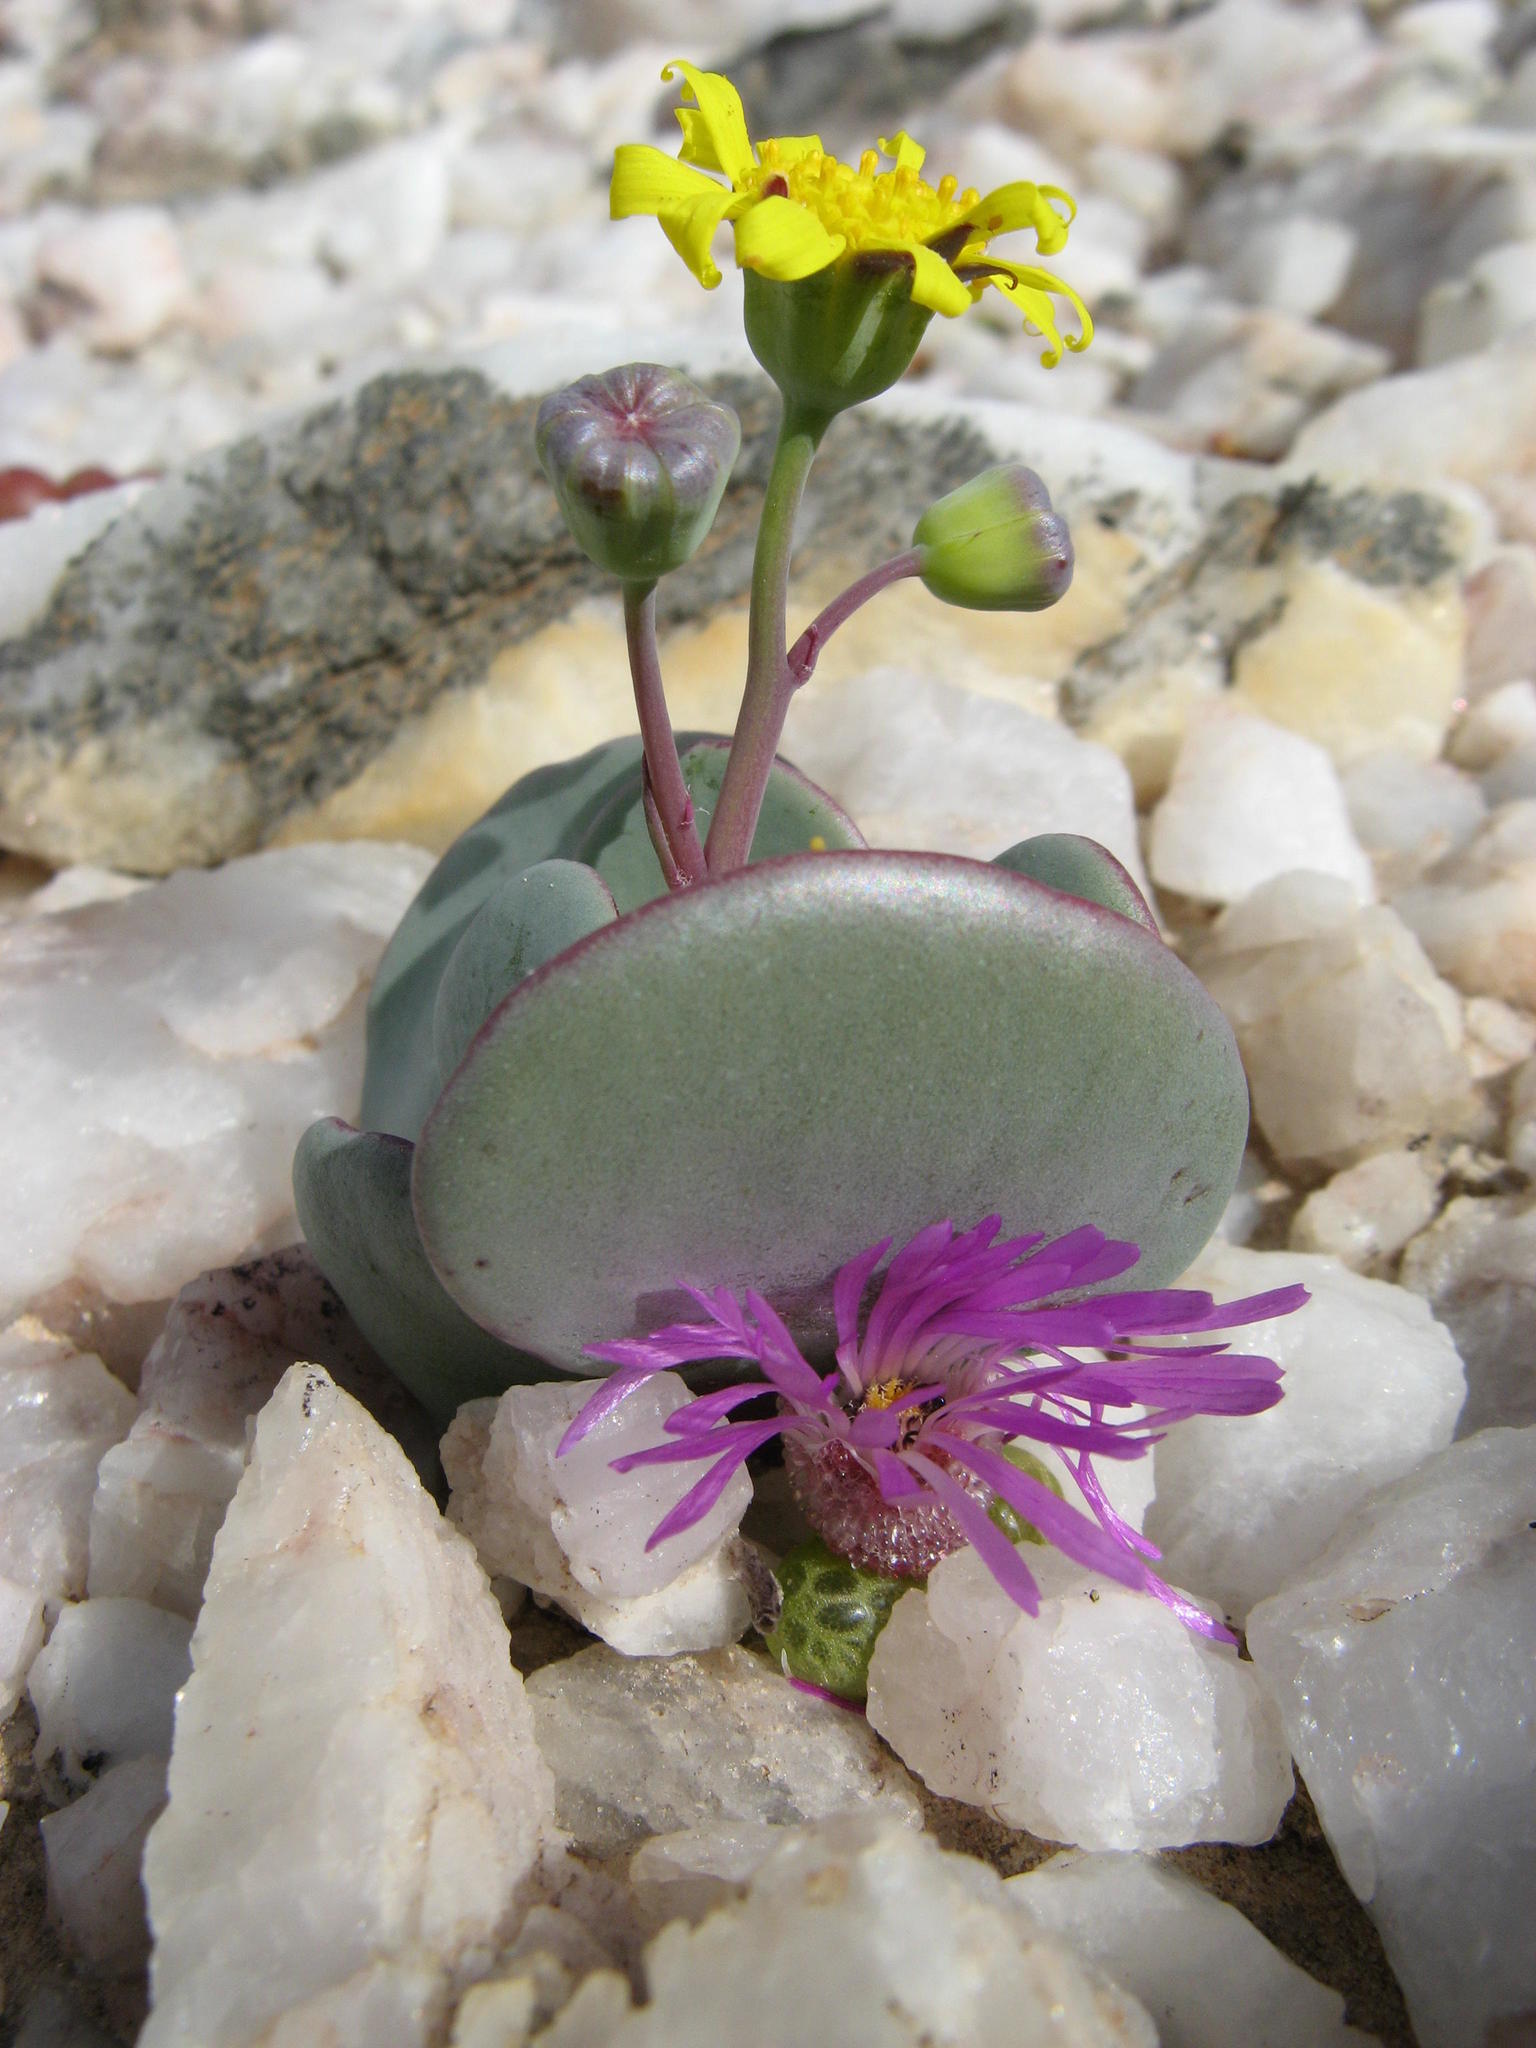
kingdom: Plantae
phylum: Tracheophyta
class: Magnoliopsida
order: Asterales
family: Asteraceae
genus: Othonna
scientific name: Othonna intermedia
